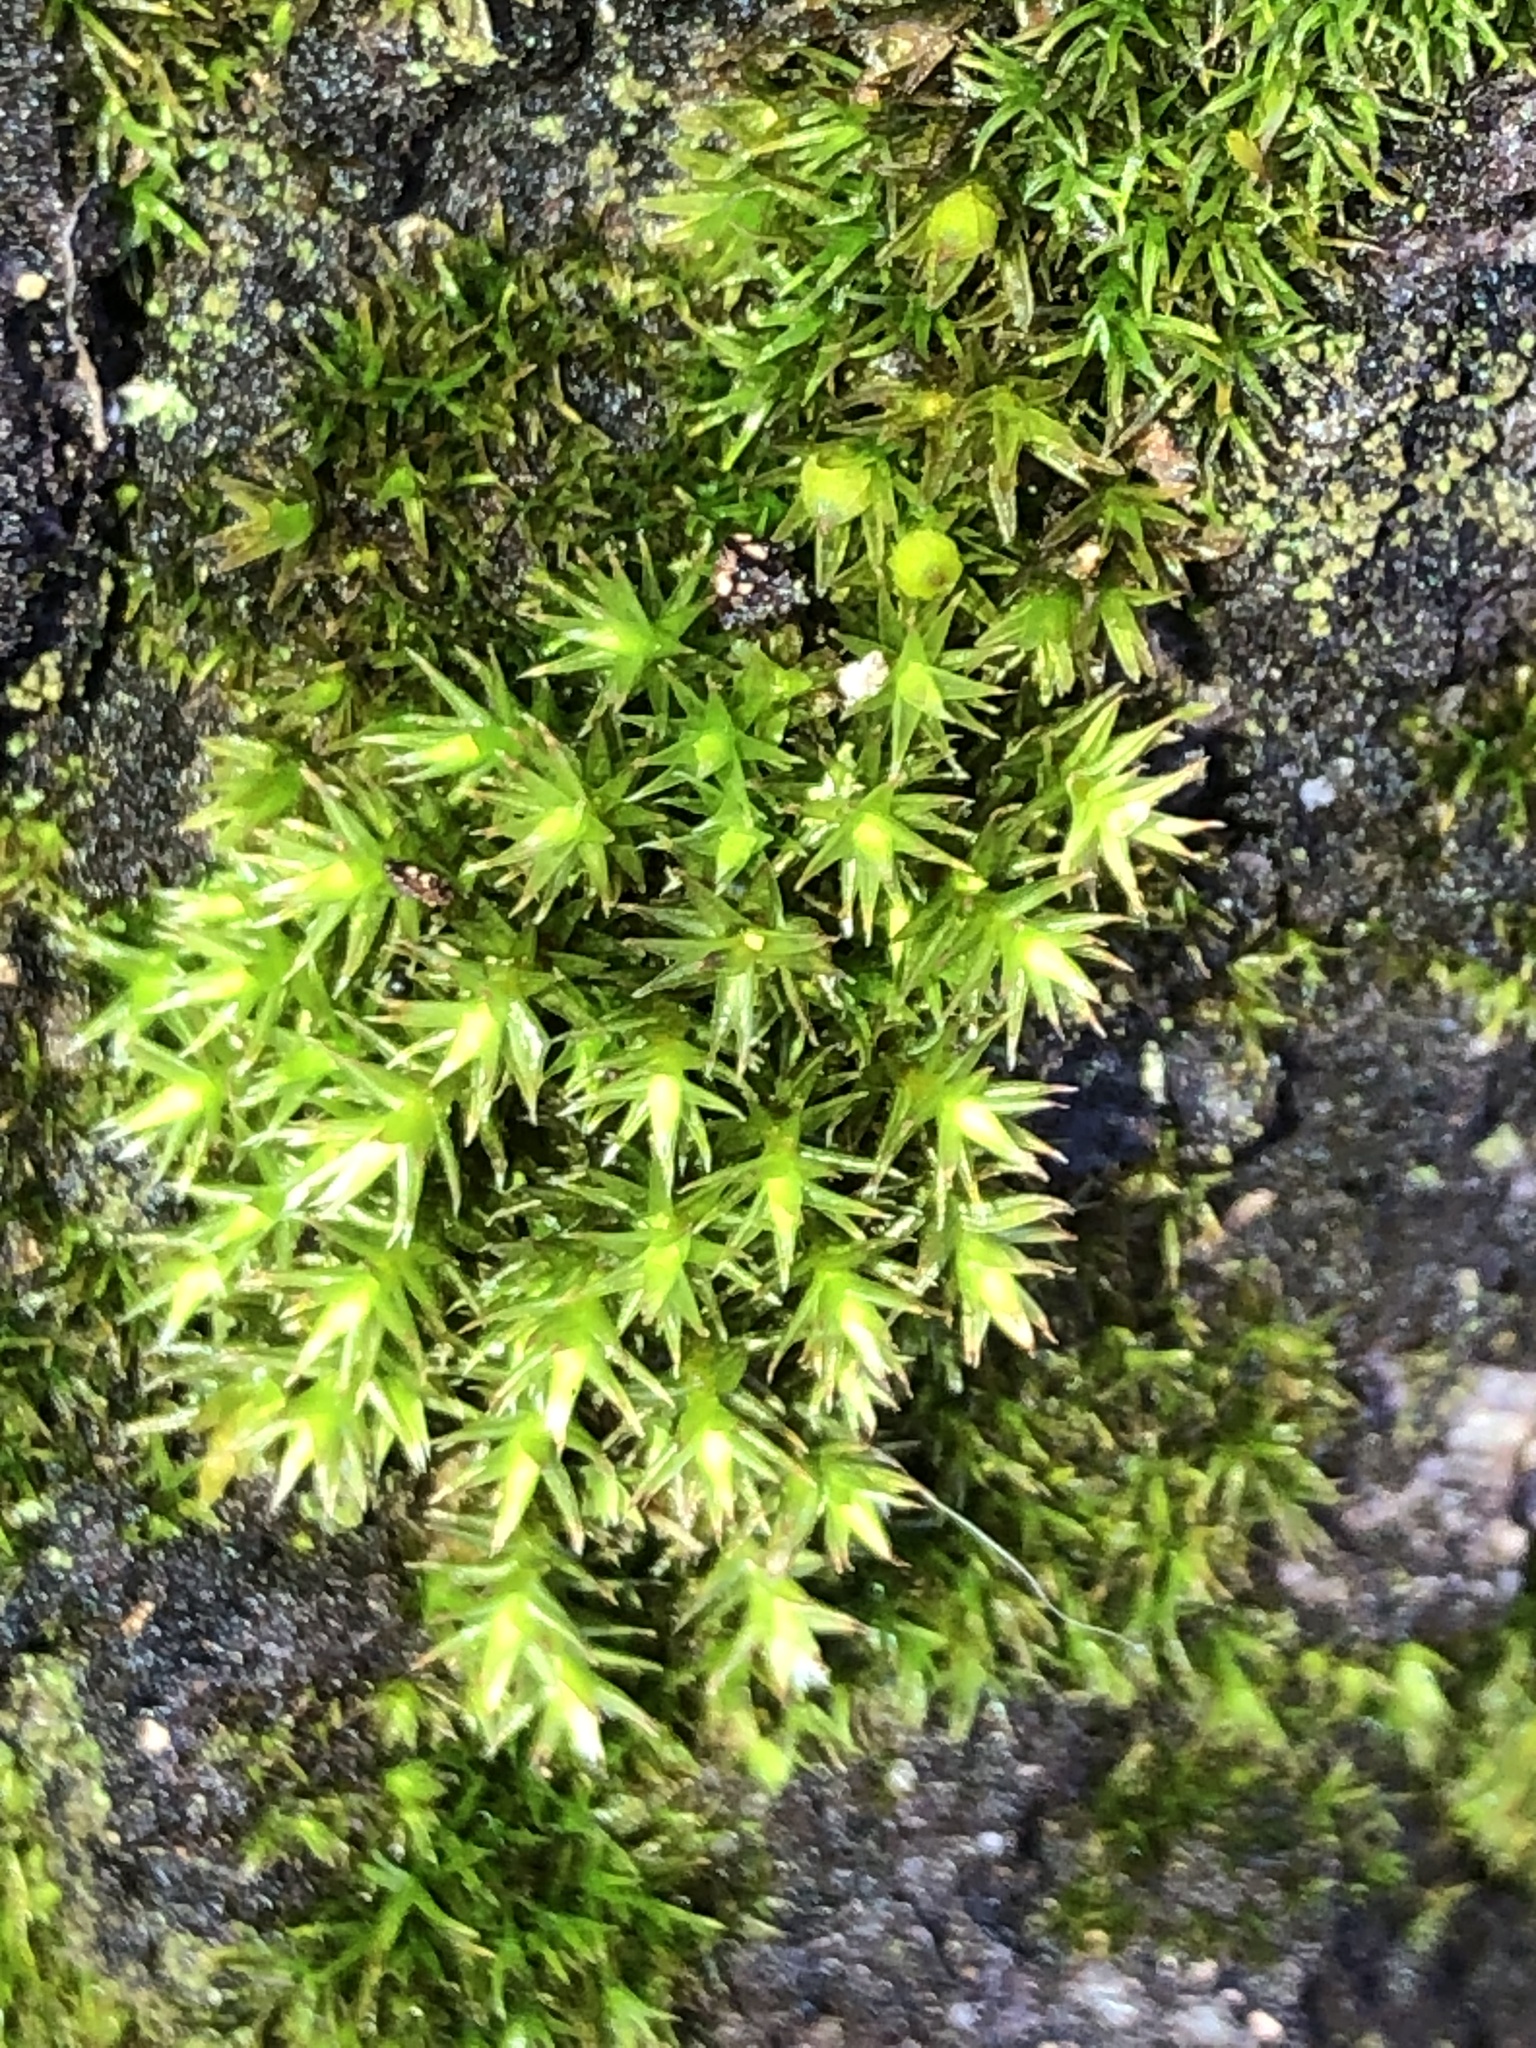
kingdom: Plantae
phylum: Bryophyta
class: Bryopsida
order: Orthotrichales
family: Orthotrichaceae
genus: Orthotrichum
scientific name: Orthotrichum stellatum
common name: Starlike bristle moss
